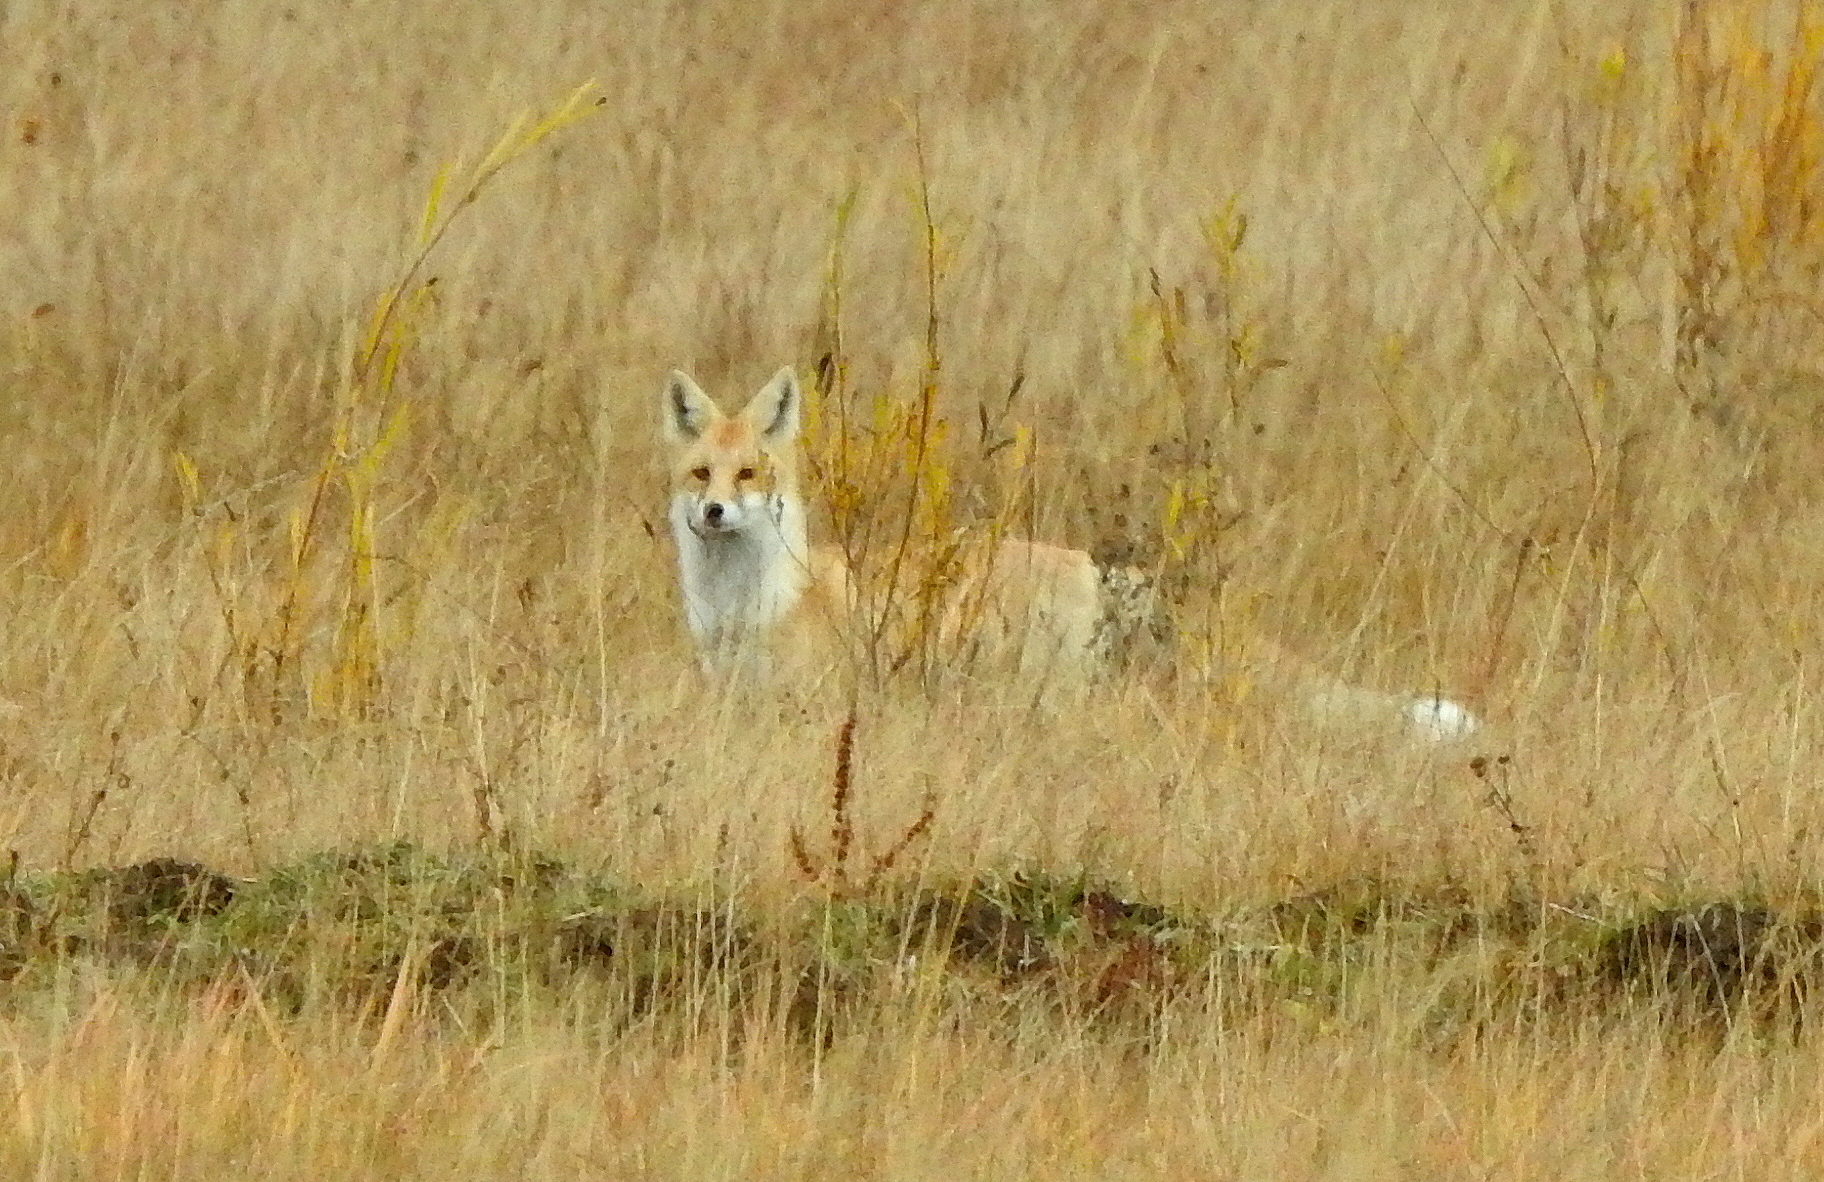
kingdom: Animalia
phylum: Chordata
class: Mammalia
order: Carnivora
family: Canidae
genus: Vulpes
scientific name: Vulpes vulpes
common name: Red fox
